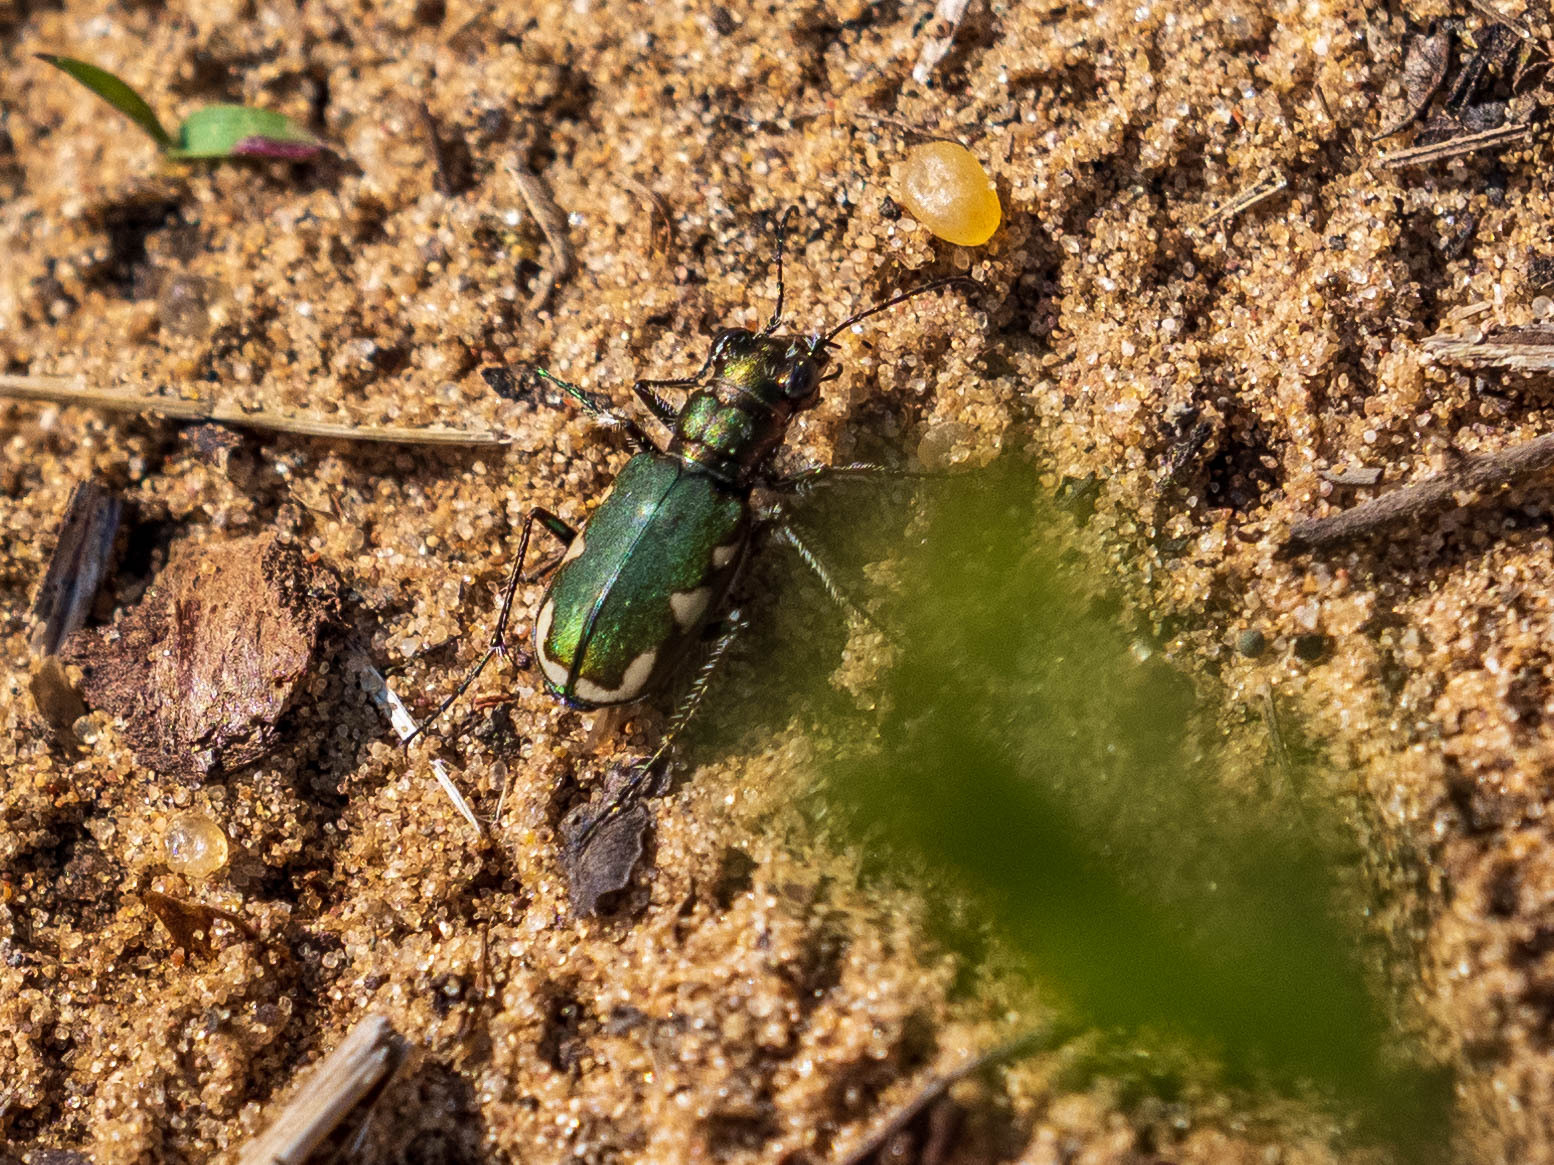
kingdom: Animalia
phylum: Arthropoda
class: Insecta
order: Coleoptera
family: Carabidae
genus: Cicindela
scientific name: Cicindela scutellaris
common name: Festive tiger beetle
